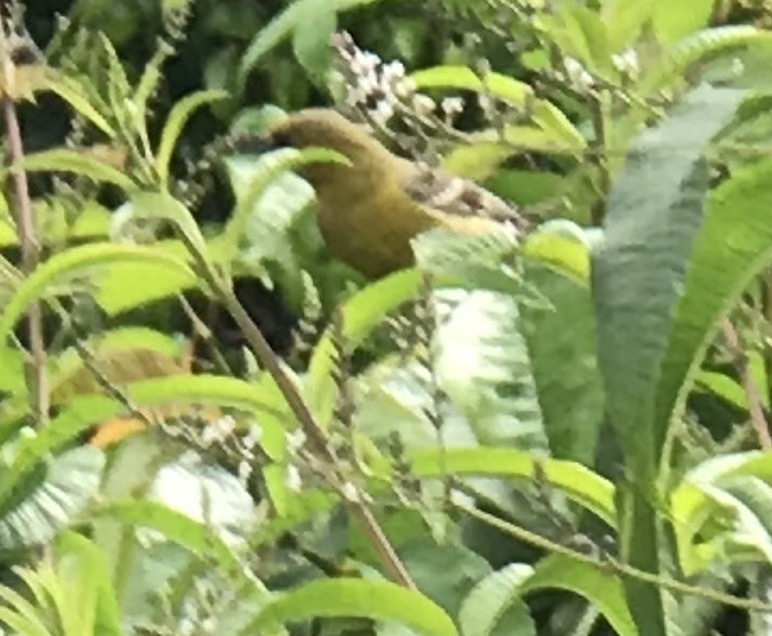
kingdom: Animalia
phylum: Chordata
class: Aves
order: Passeriformes
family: Icteridae
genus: Icterus
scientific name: Icterus cucullatus
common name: Hooded oriole
